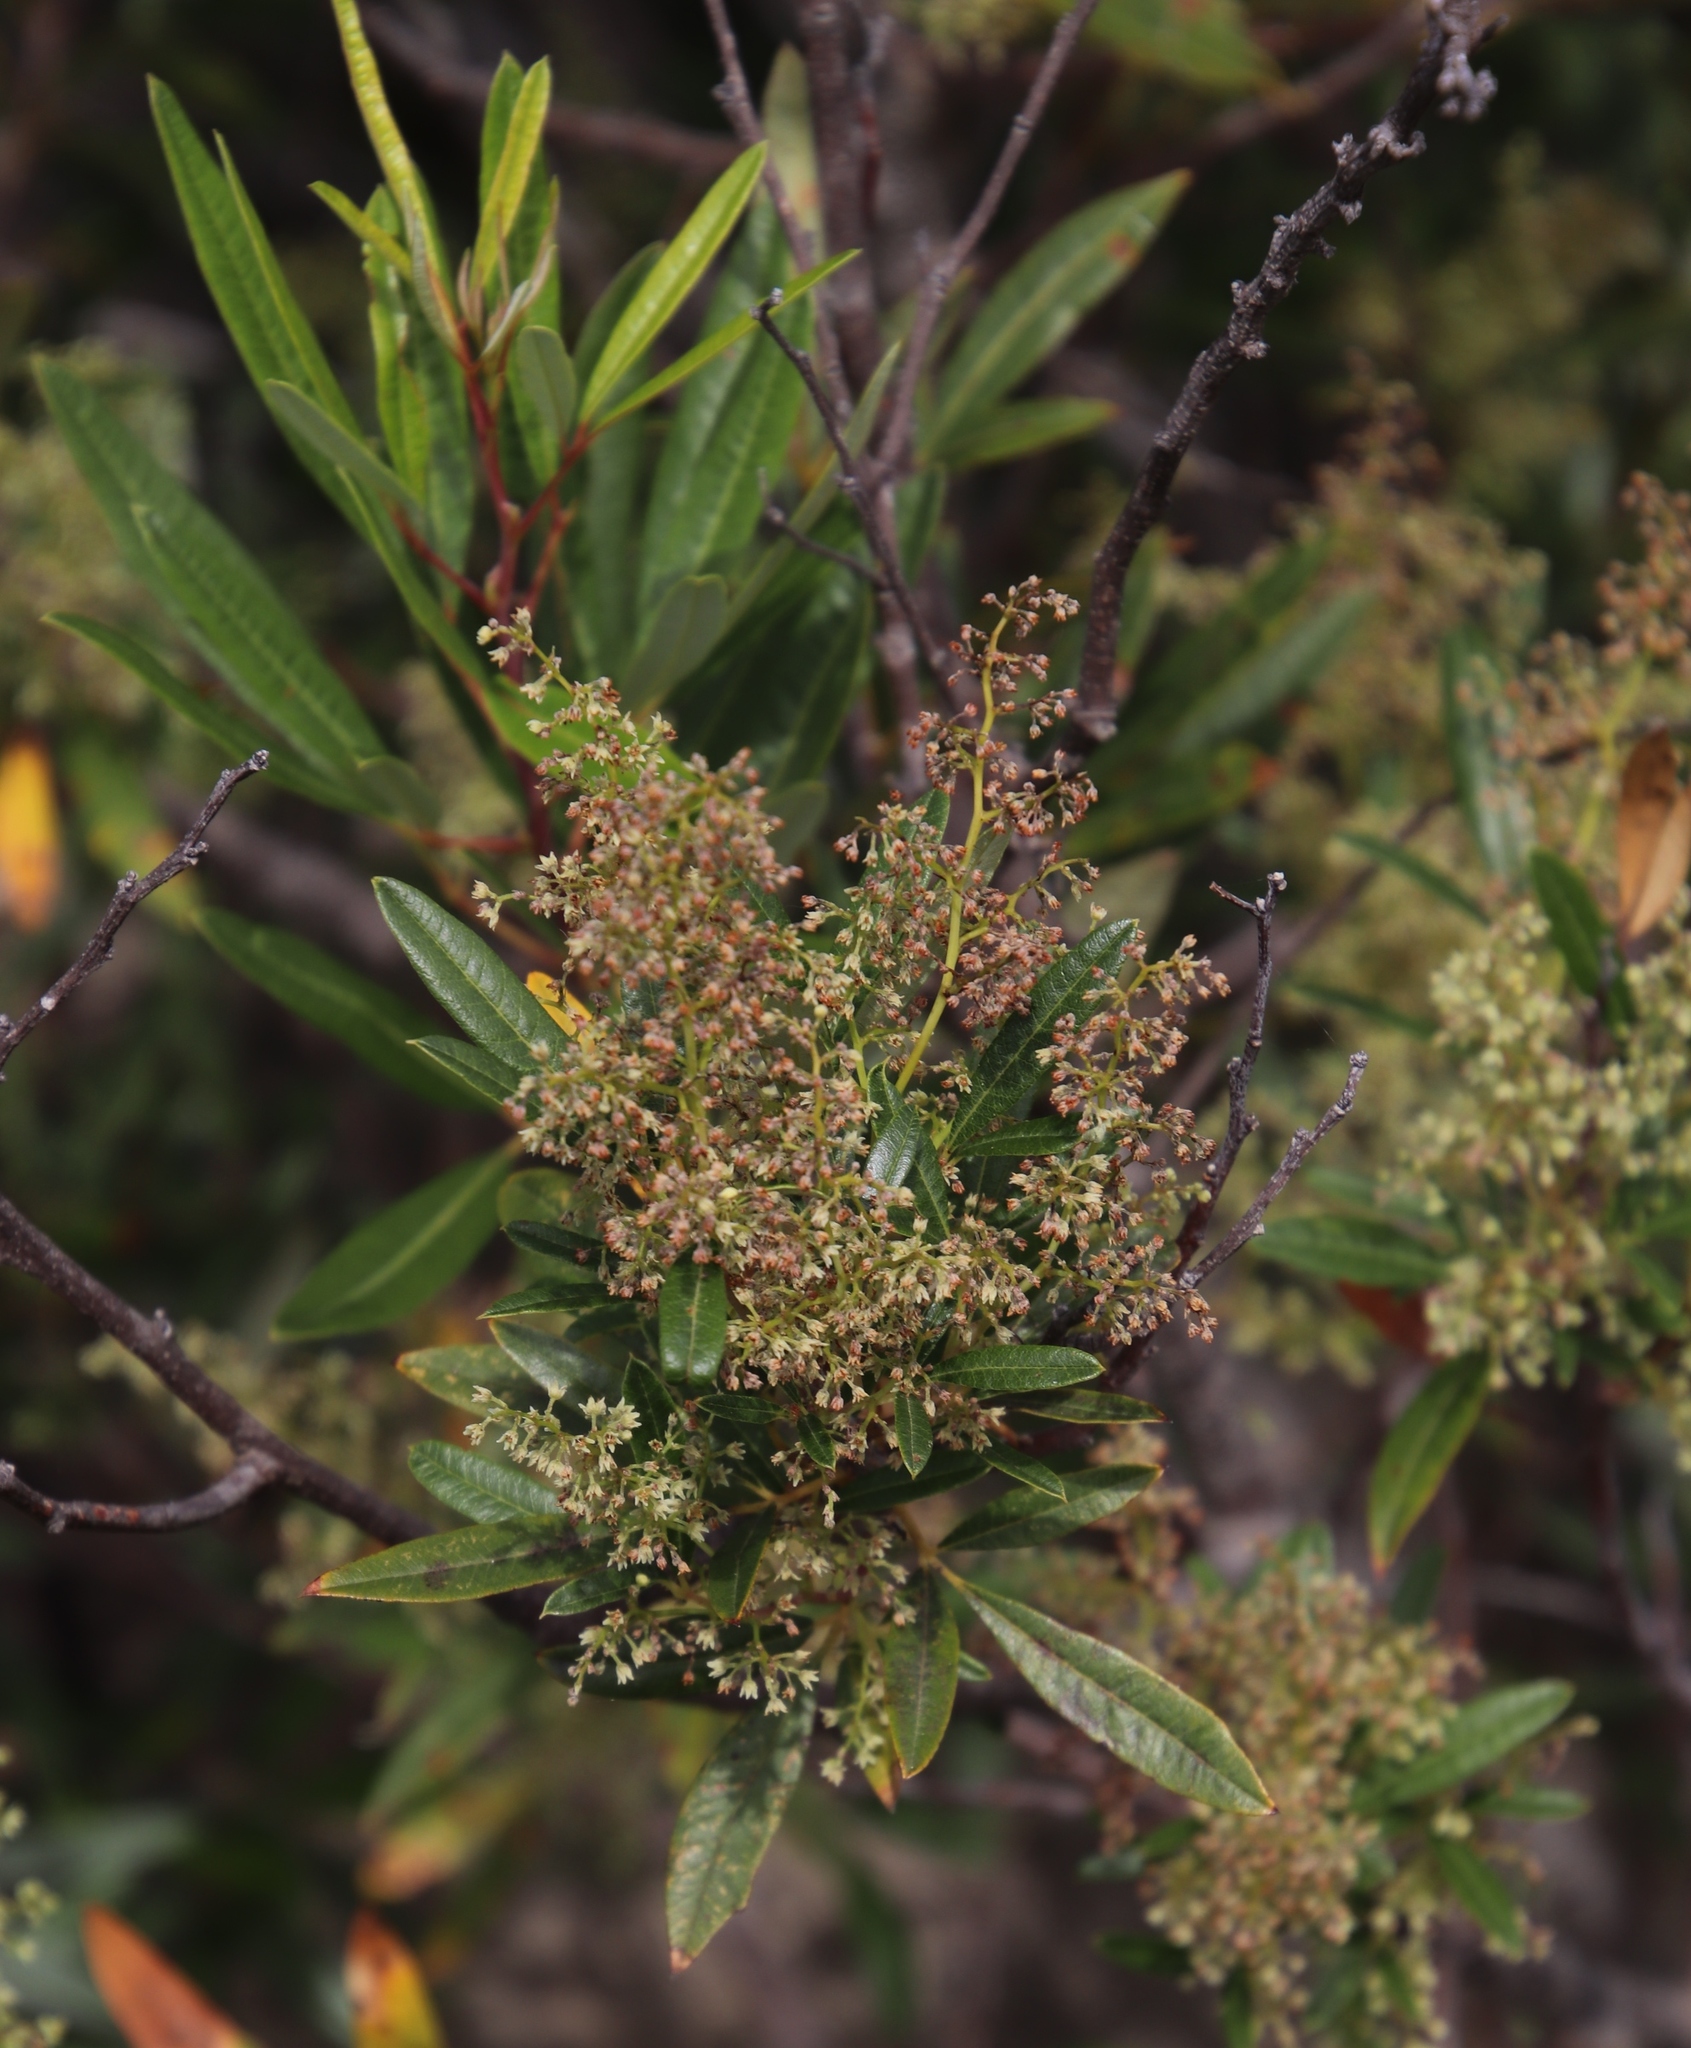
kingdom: Plantae
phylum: Tracheophyta
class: Magnoliopsida
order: Sapindales
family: Anacardiaceae
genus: Searsia
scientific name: Searsia angustifolia
